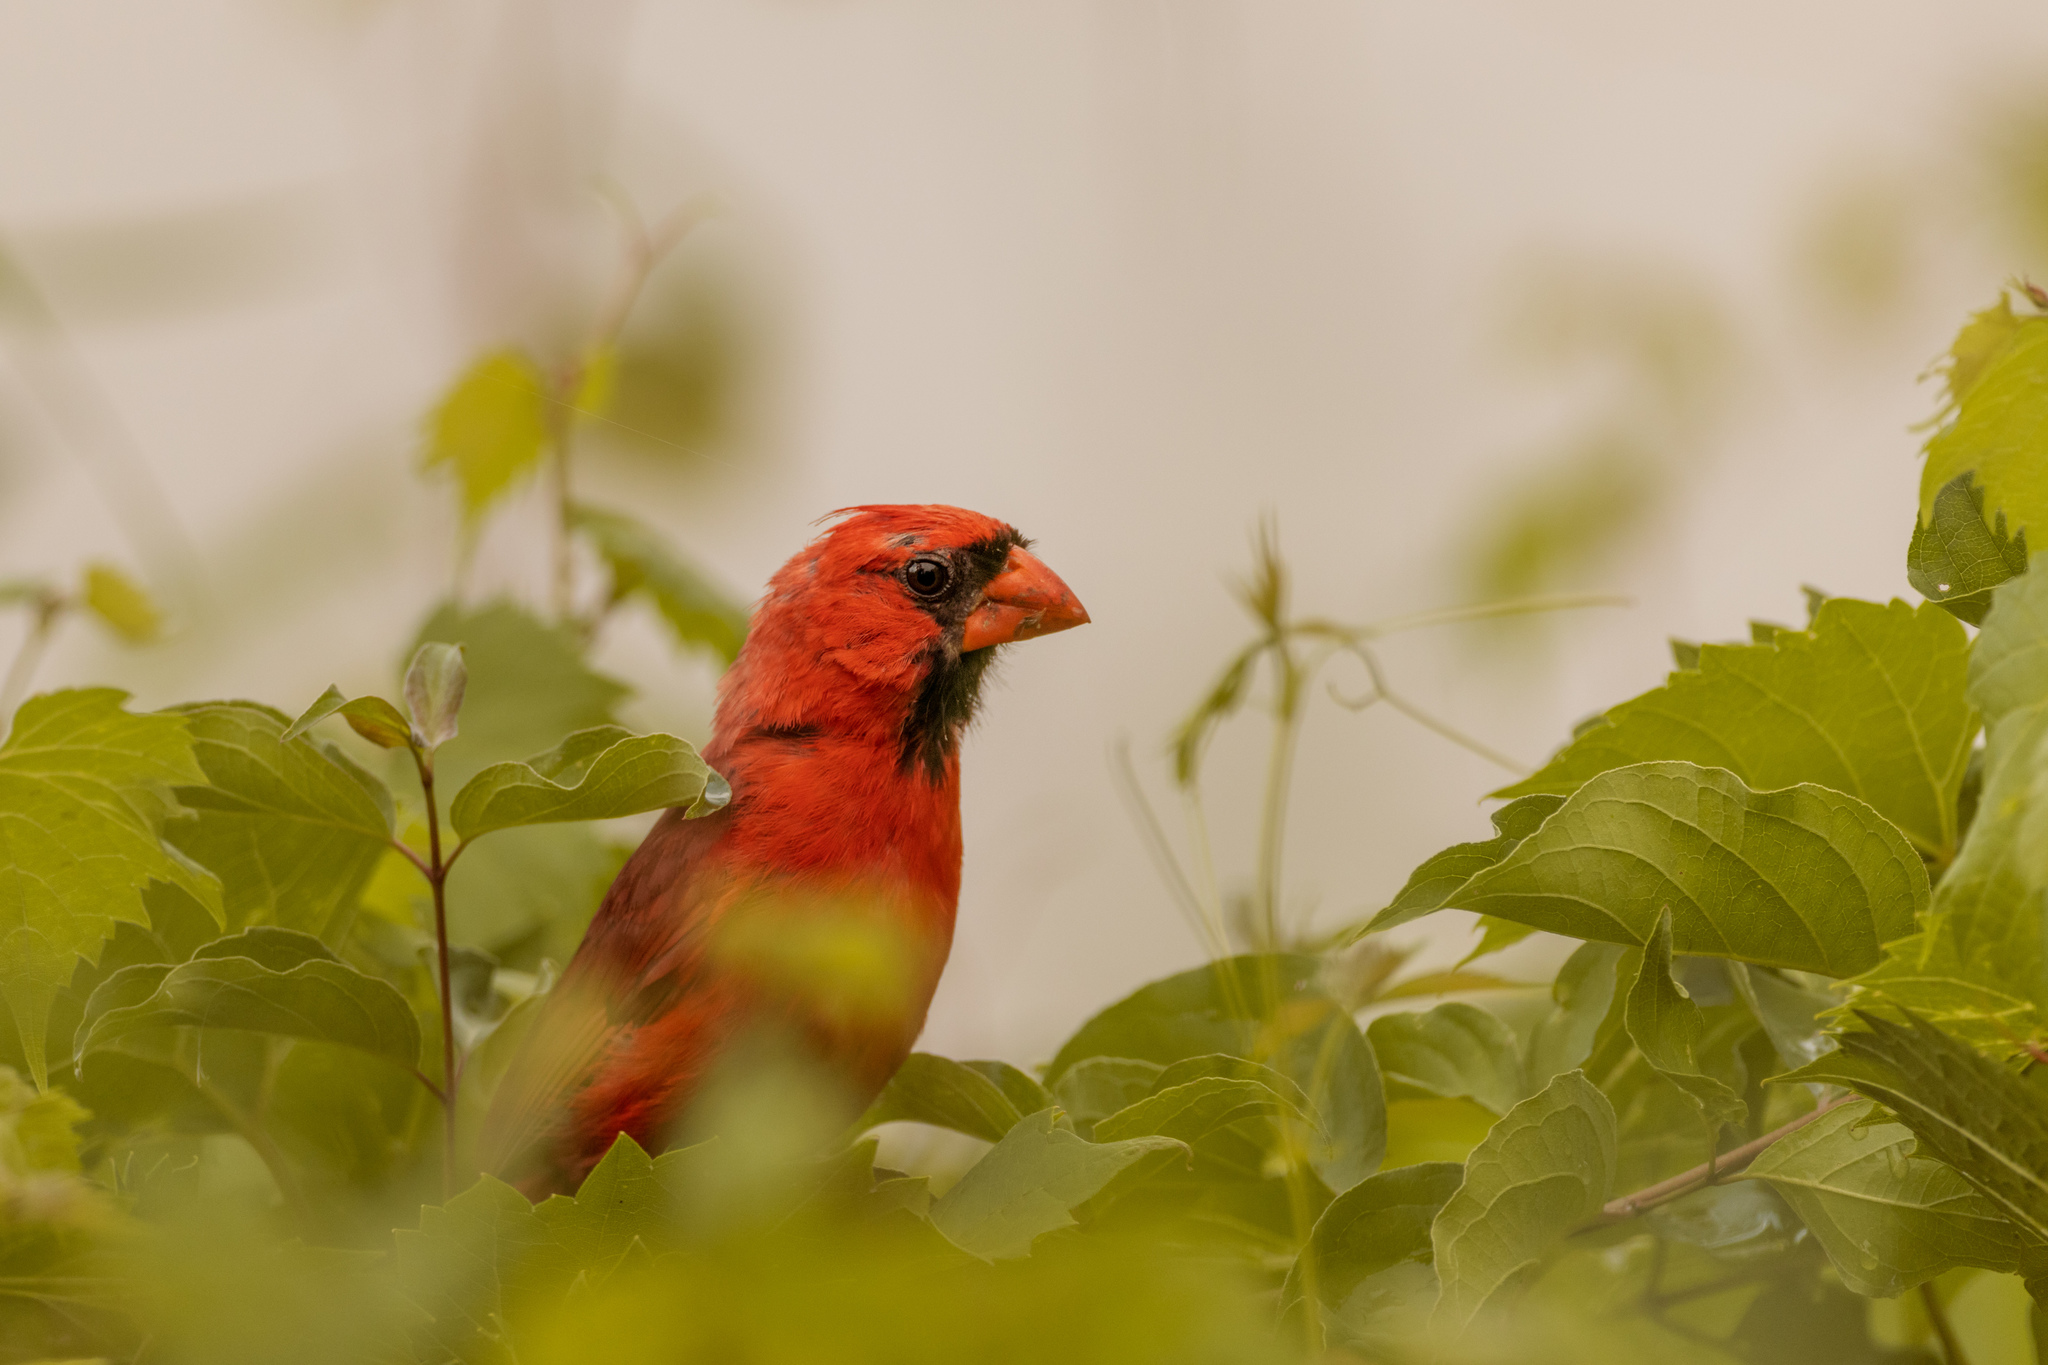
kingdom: Animalia
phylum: Chordata
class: Aves
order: Passeriformes
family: Cardinalidae
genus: Cardinalis
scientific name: Cardinalis cardinalis
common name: Northern cardinal
